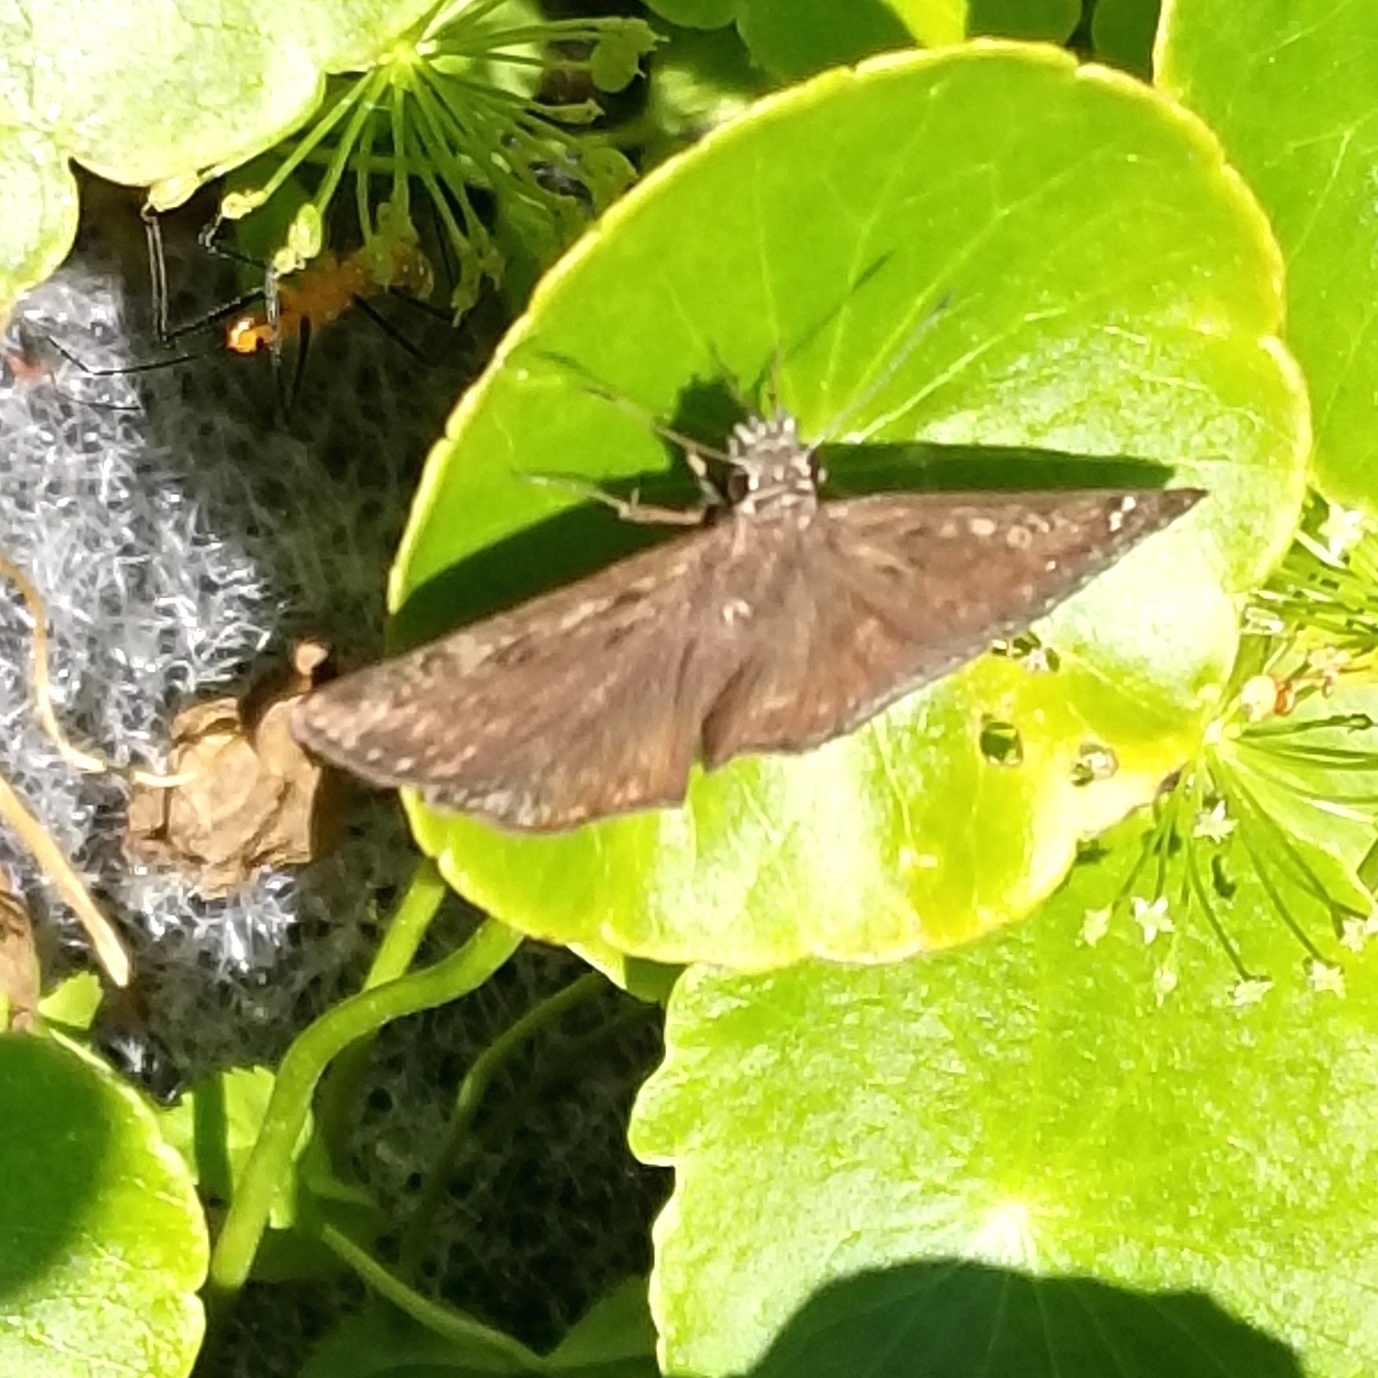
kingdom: Animalia
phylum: Arthropoda
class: Insecta
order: Lepidoptera
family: Hesperiidae
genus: Erynnis
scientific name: Erynnis horatius
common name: Horace's duskywing
